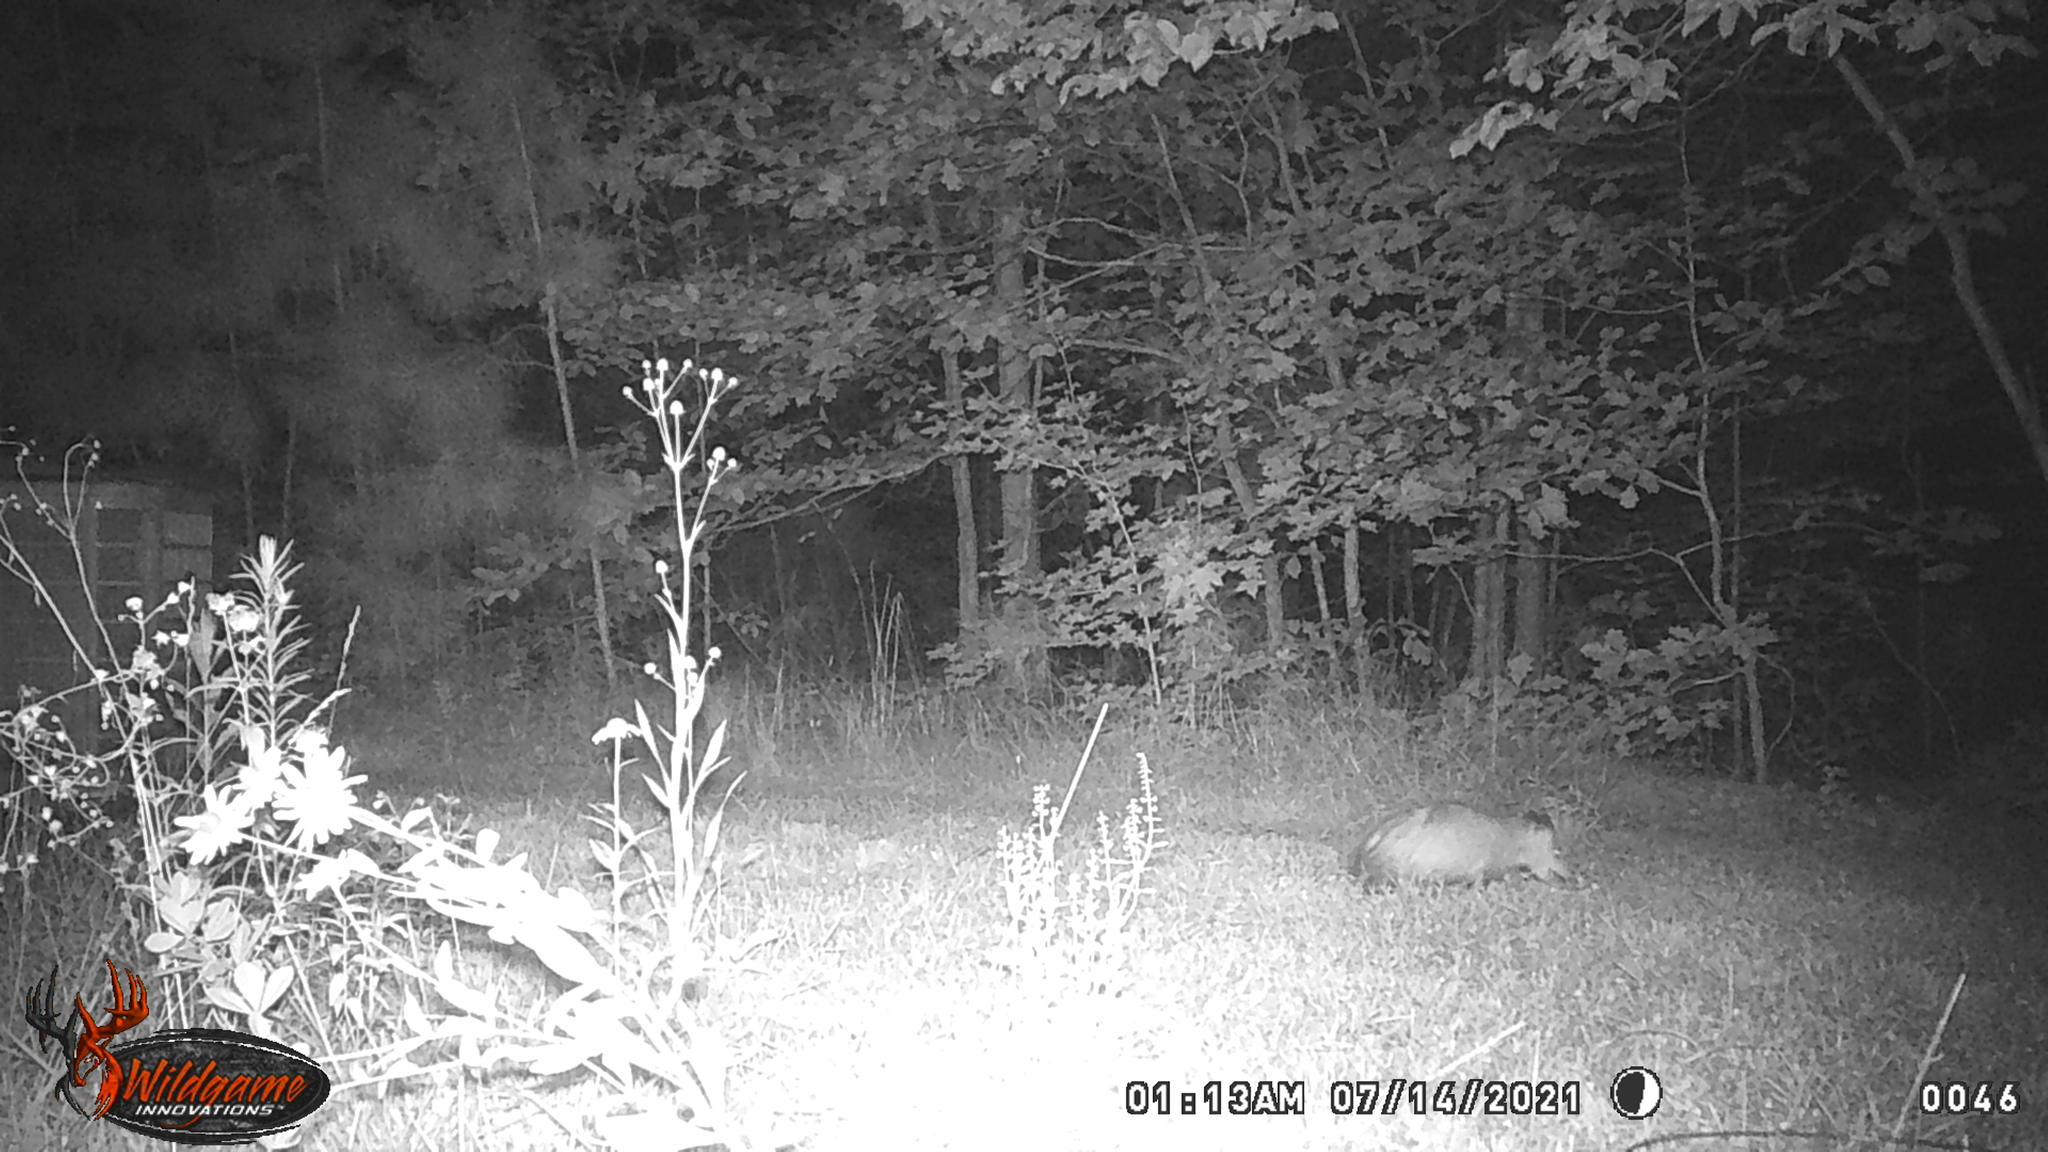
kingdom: Animalia
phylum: Chordata
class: Mammalia
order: Didelphimorphia
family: Didelphidae
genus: Didelphis
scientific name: Didelphis virginiana
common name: Virginia opossum
